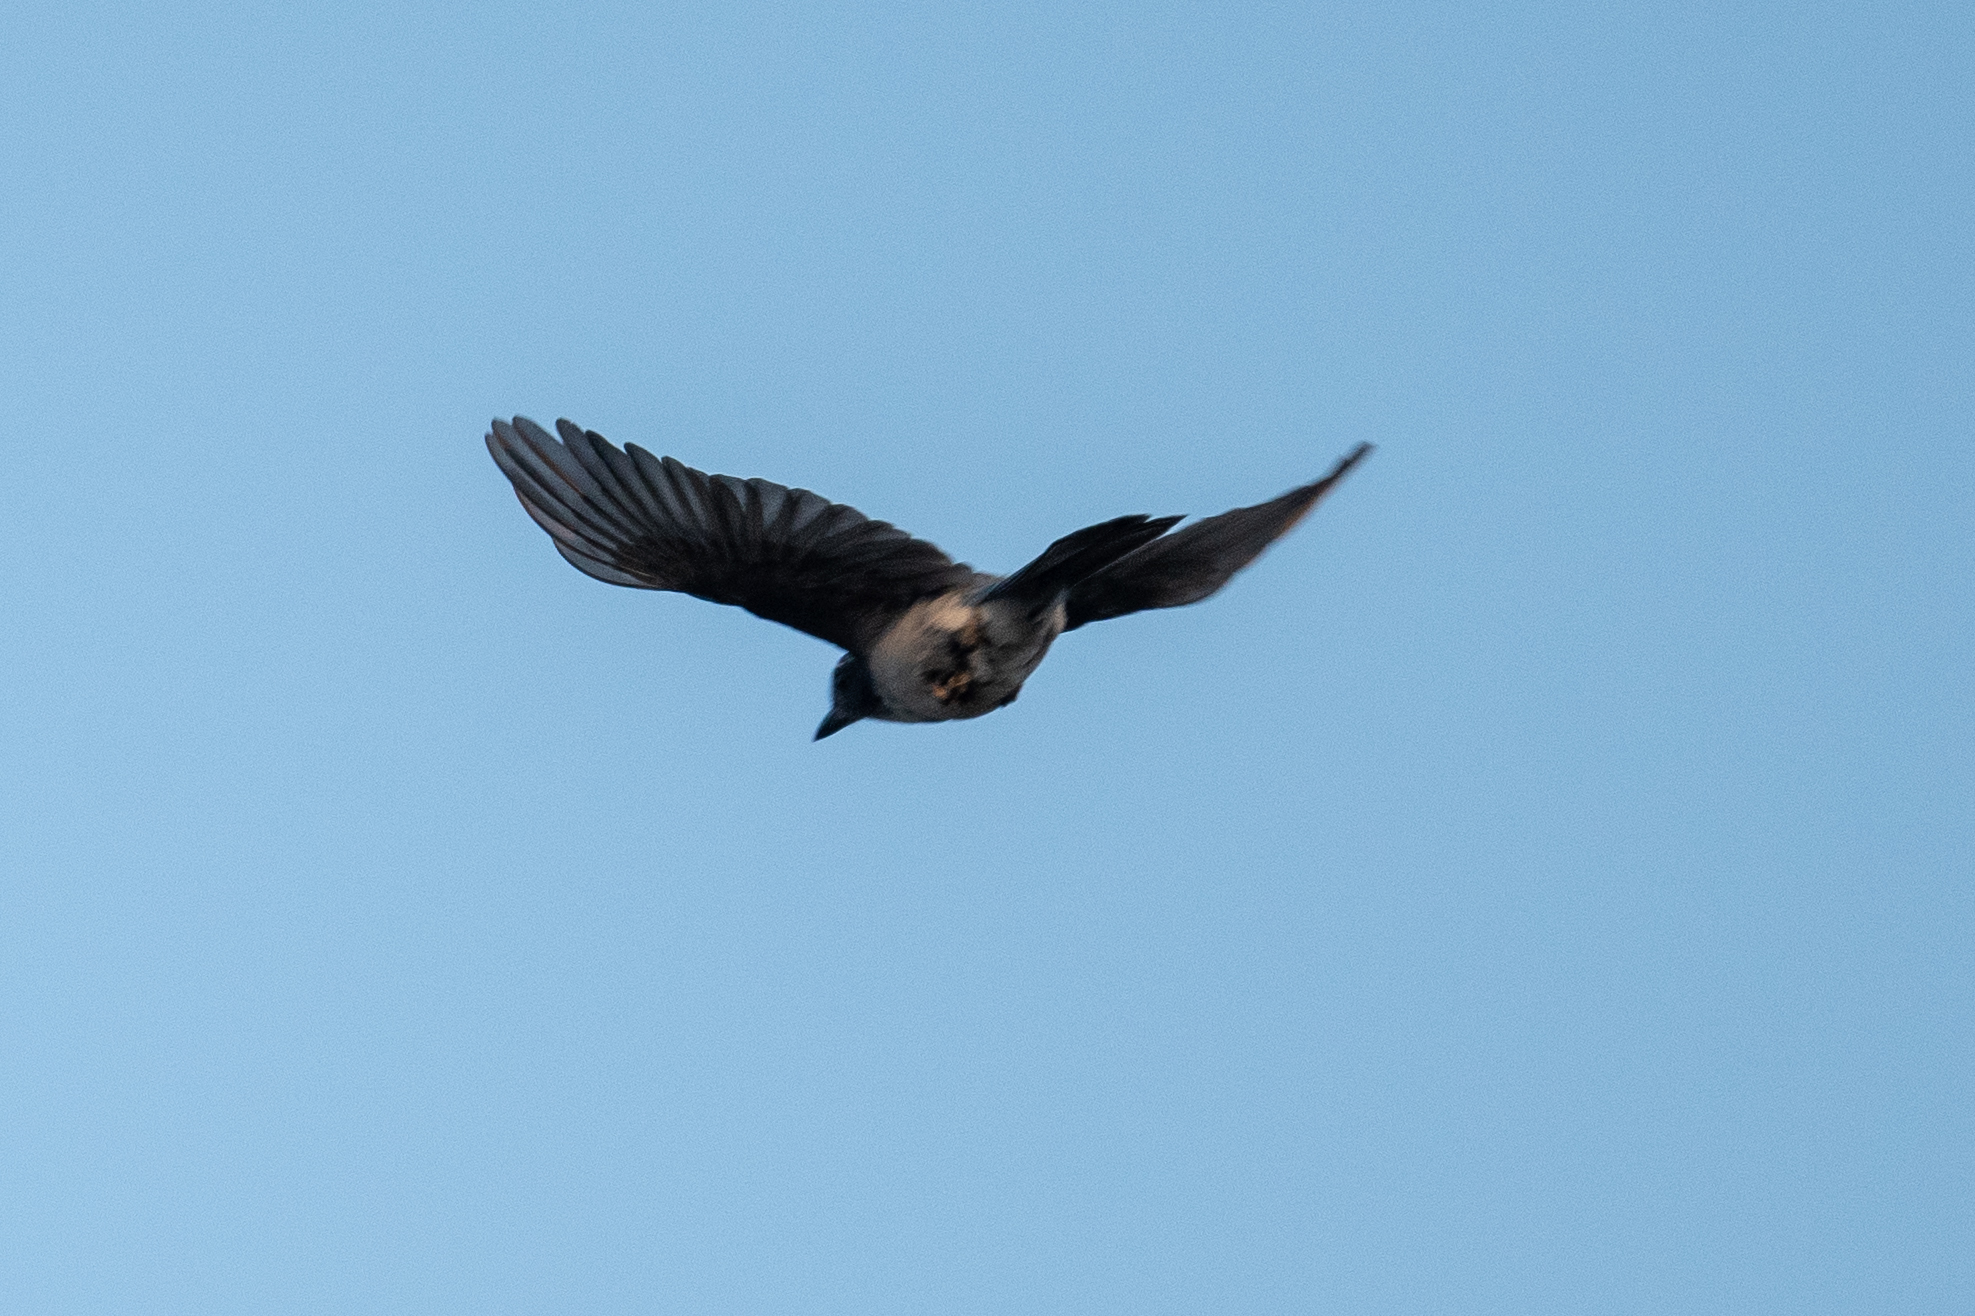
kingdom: Animalia
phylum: Chordata
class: Aves
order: Passeriformes
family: Corvidae
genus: Aphelocoma
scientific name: Aphelocoma californica
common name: California scrub-jay
